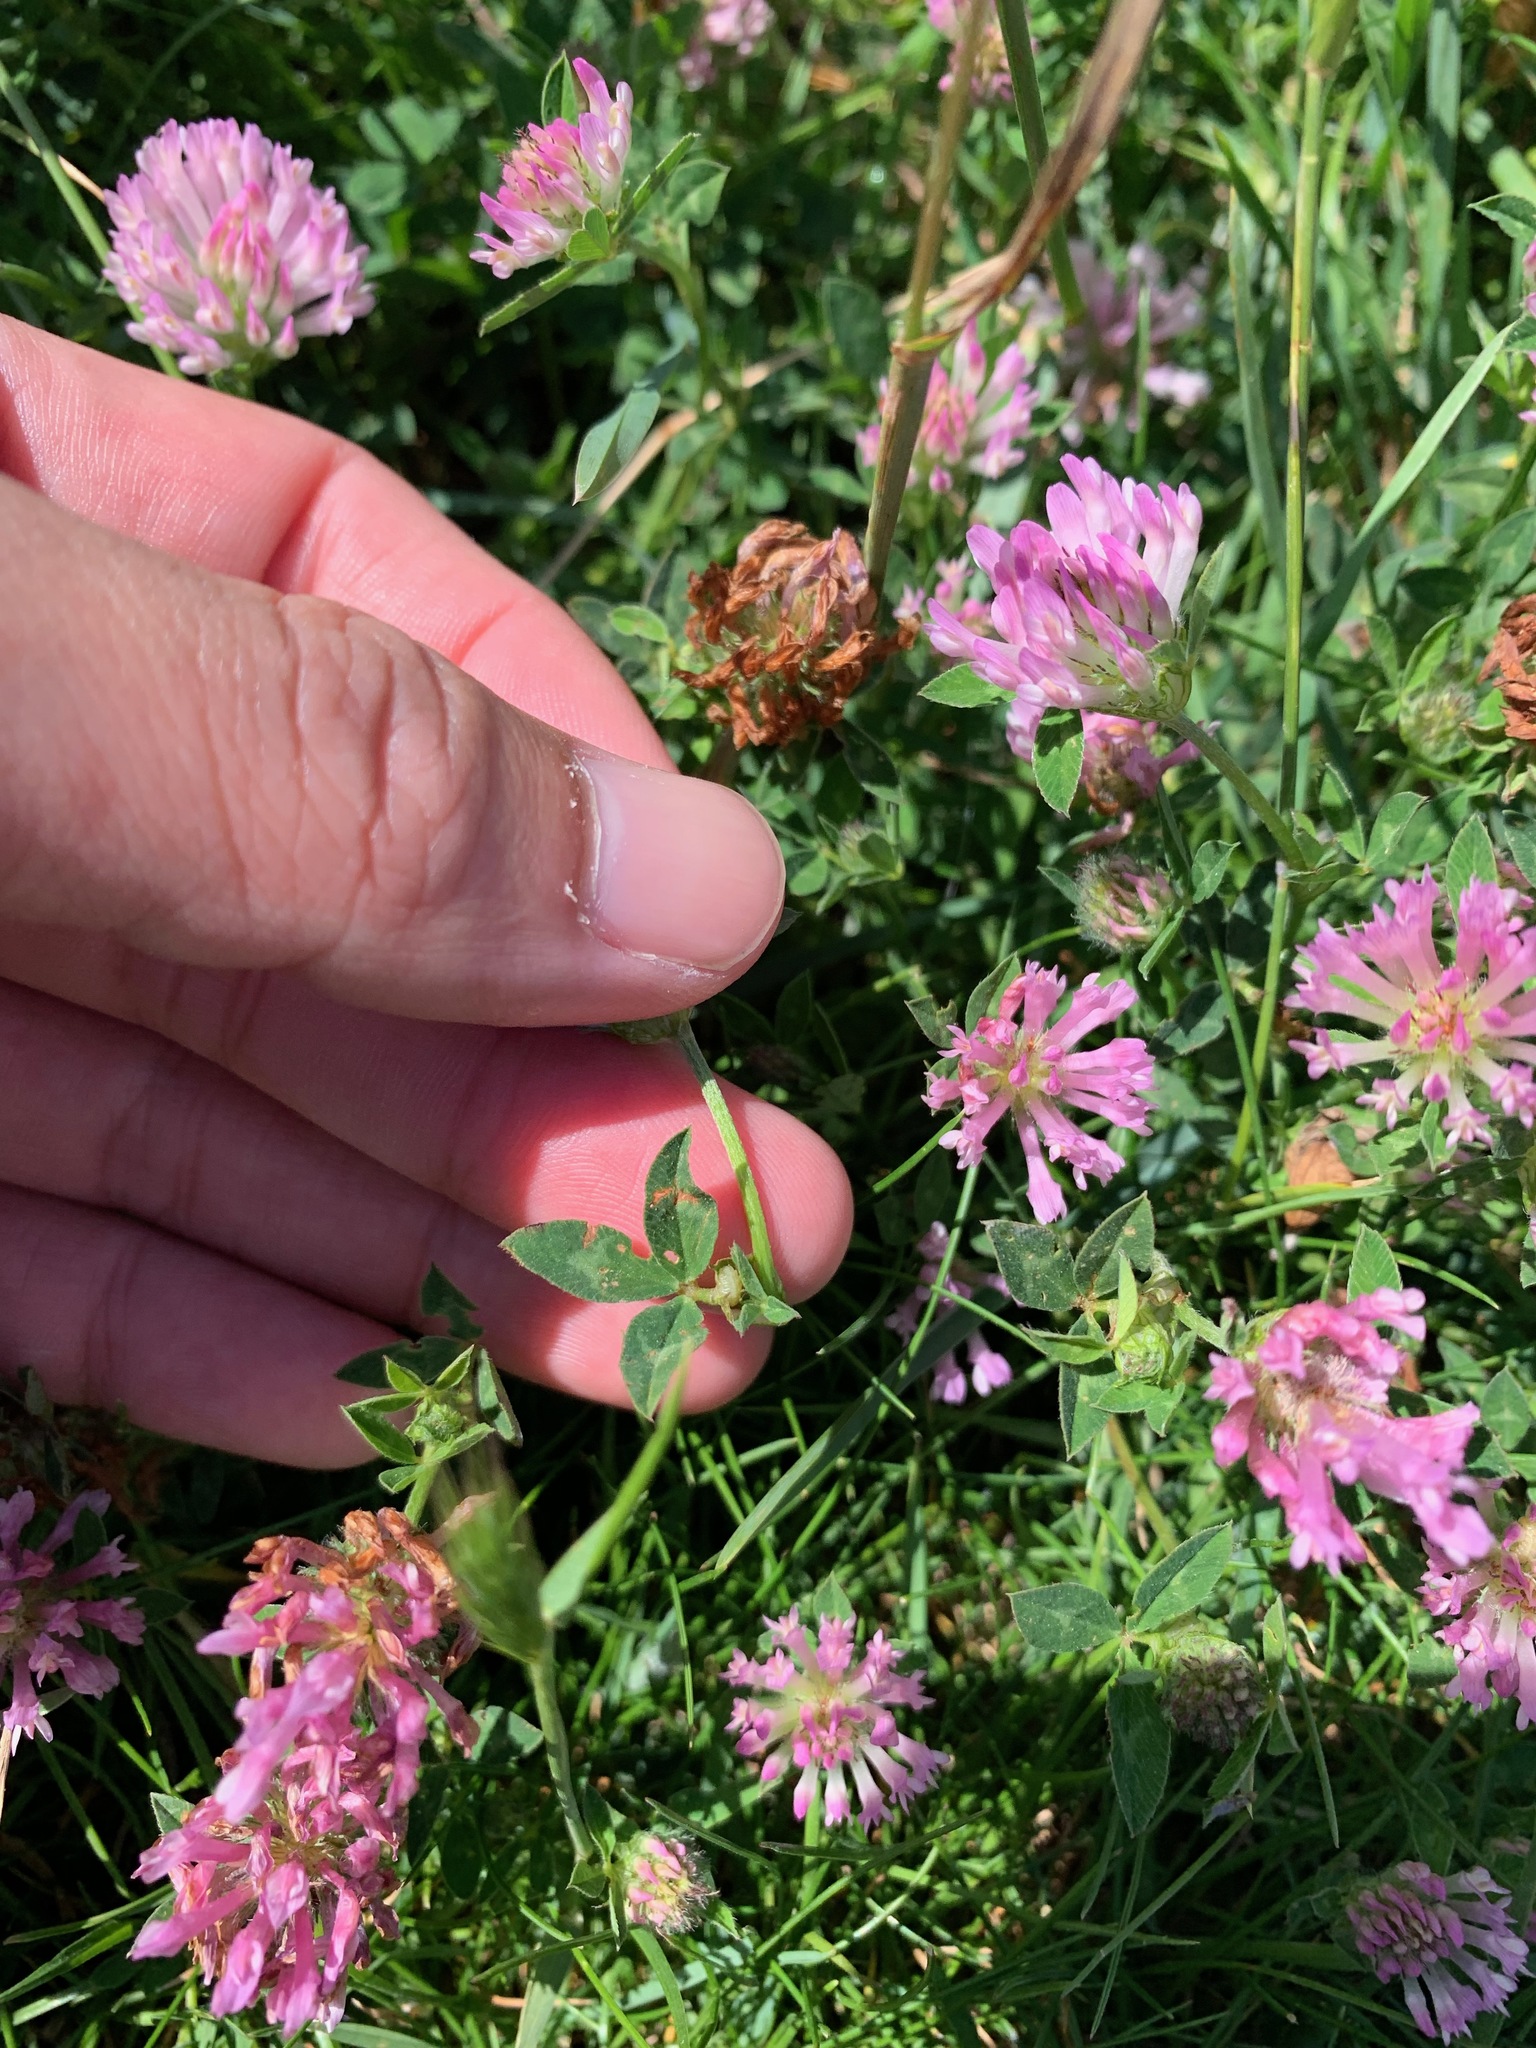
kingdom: Plantae
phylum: Tracheophyta
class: Magnoliopsida
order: Fabales
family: Fabaceae
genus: Trifolium
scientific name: Trifolium pratense
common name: Red clover
